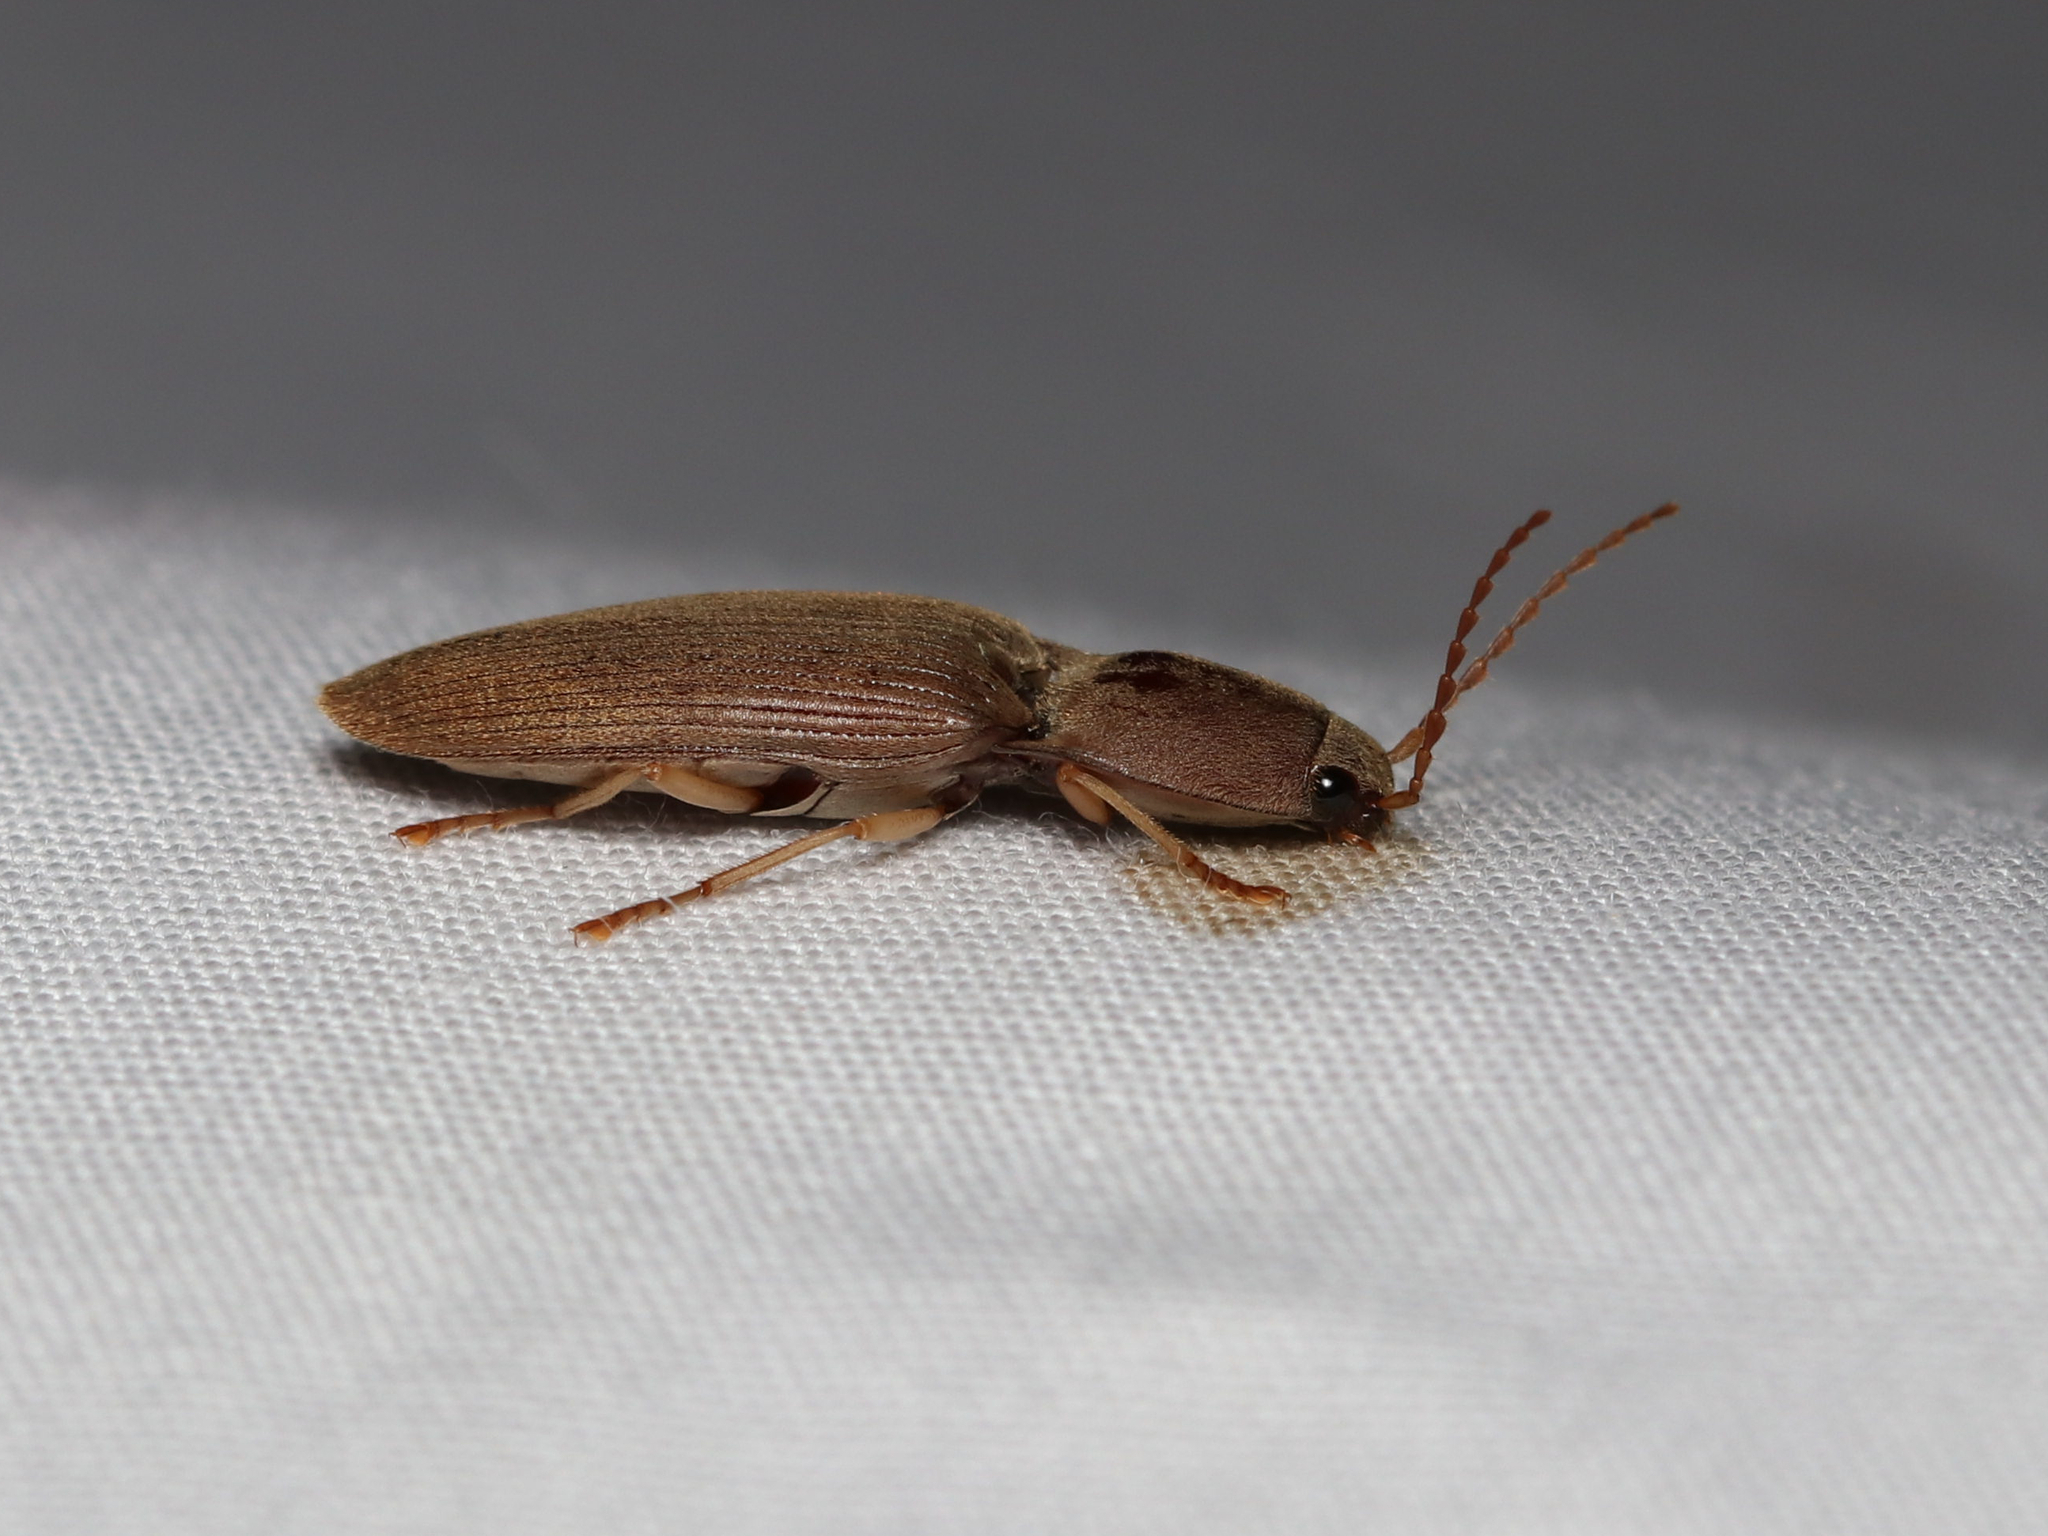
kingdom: Animalia
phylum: Arthropoda
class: Insecta
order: Coleoptera
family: Elateridae
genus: Monocrepidius
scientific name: Monocrepidius lividus
